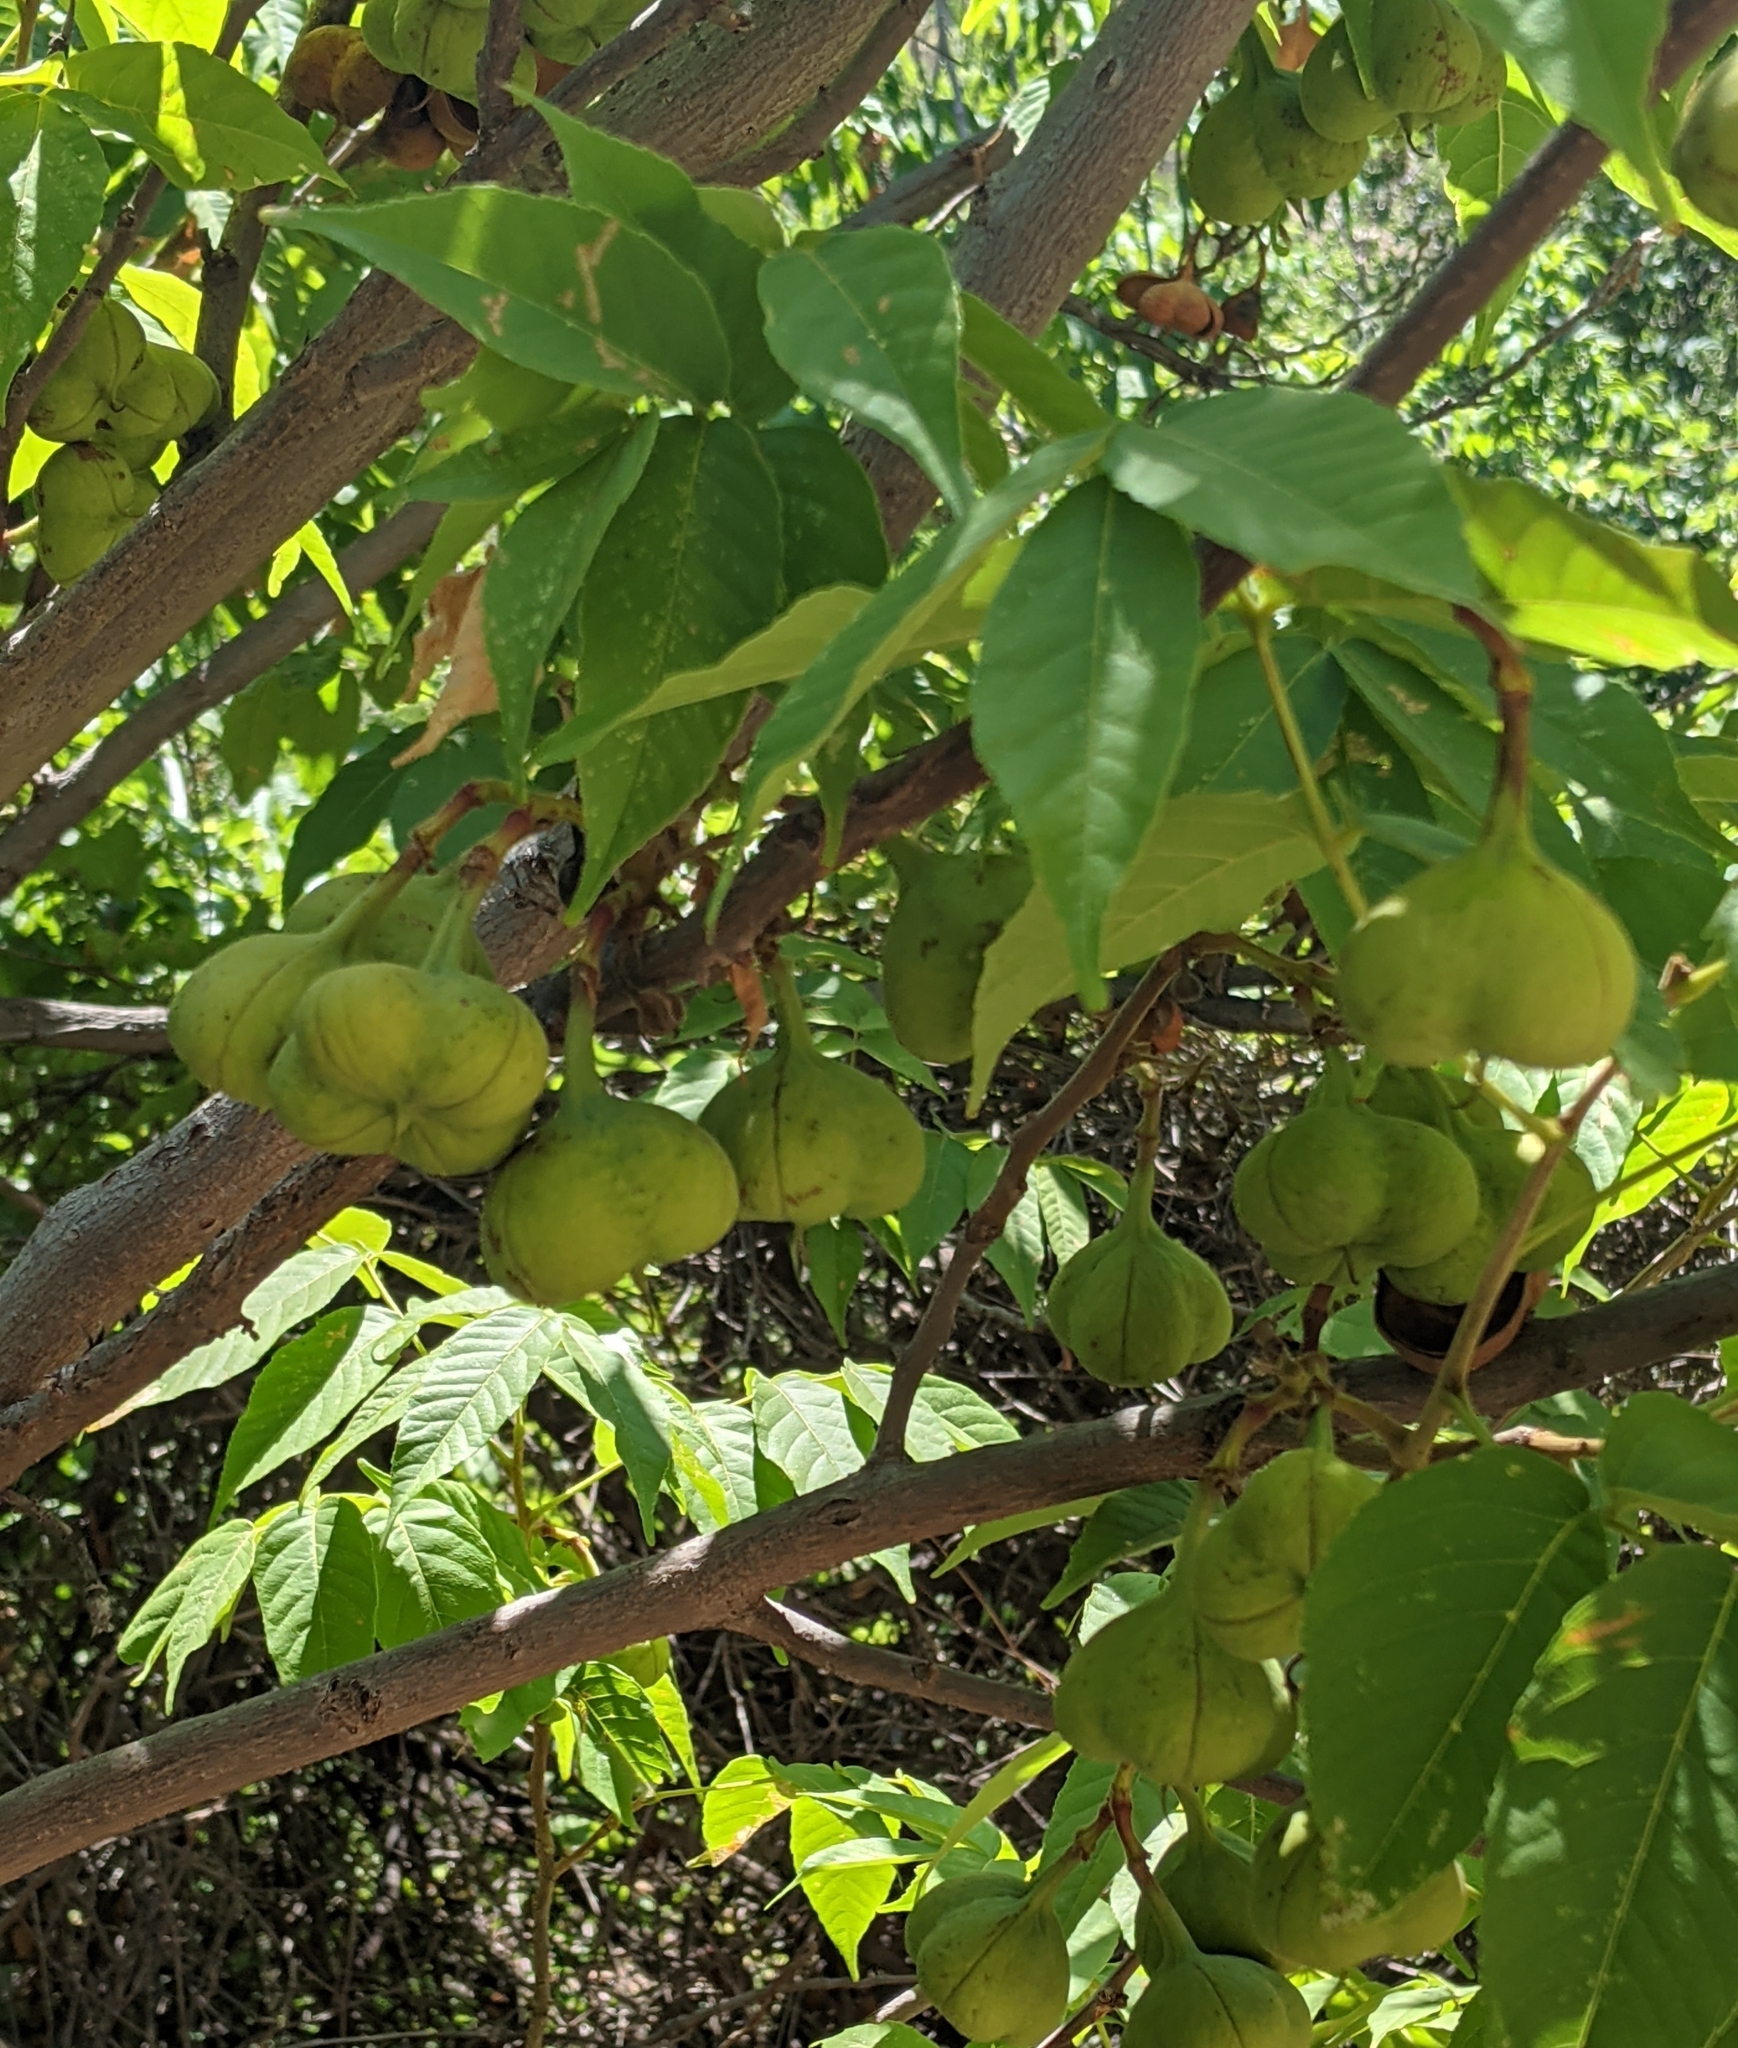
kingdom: Plantae
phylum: Tracheophyta
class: Magnoliopsida
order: Sapindales
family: Sapindaceae
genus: Ungnadia
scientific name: Ungnadia speciosa
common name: Texas-buckeye
